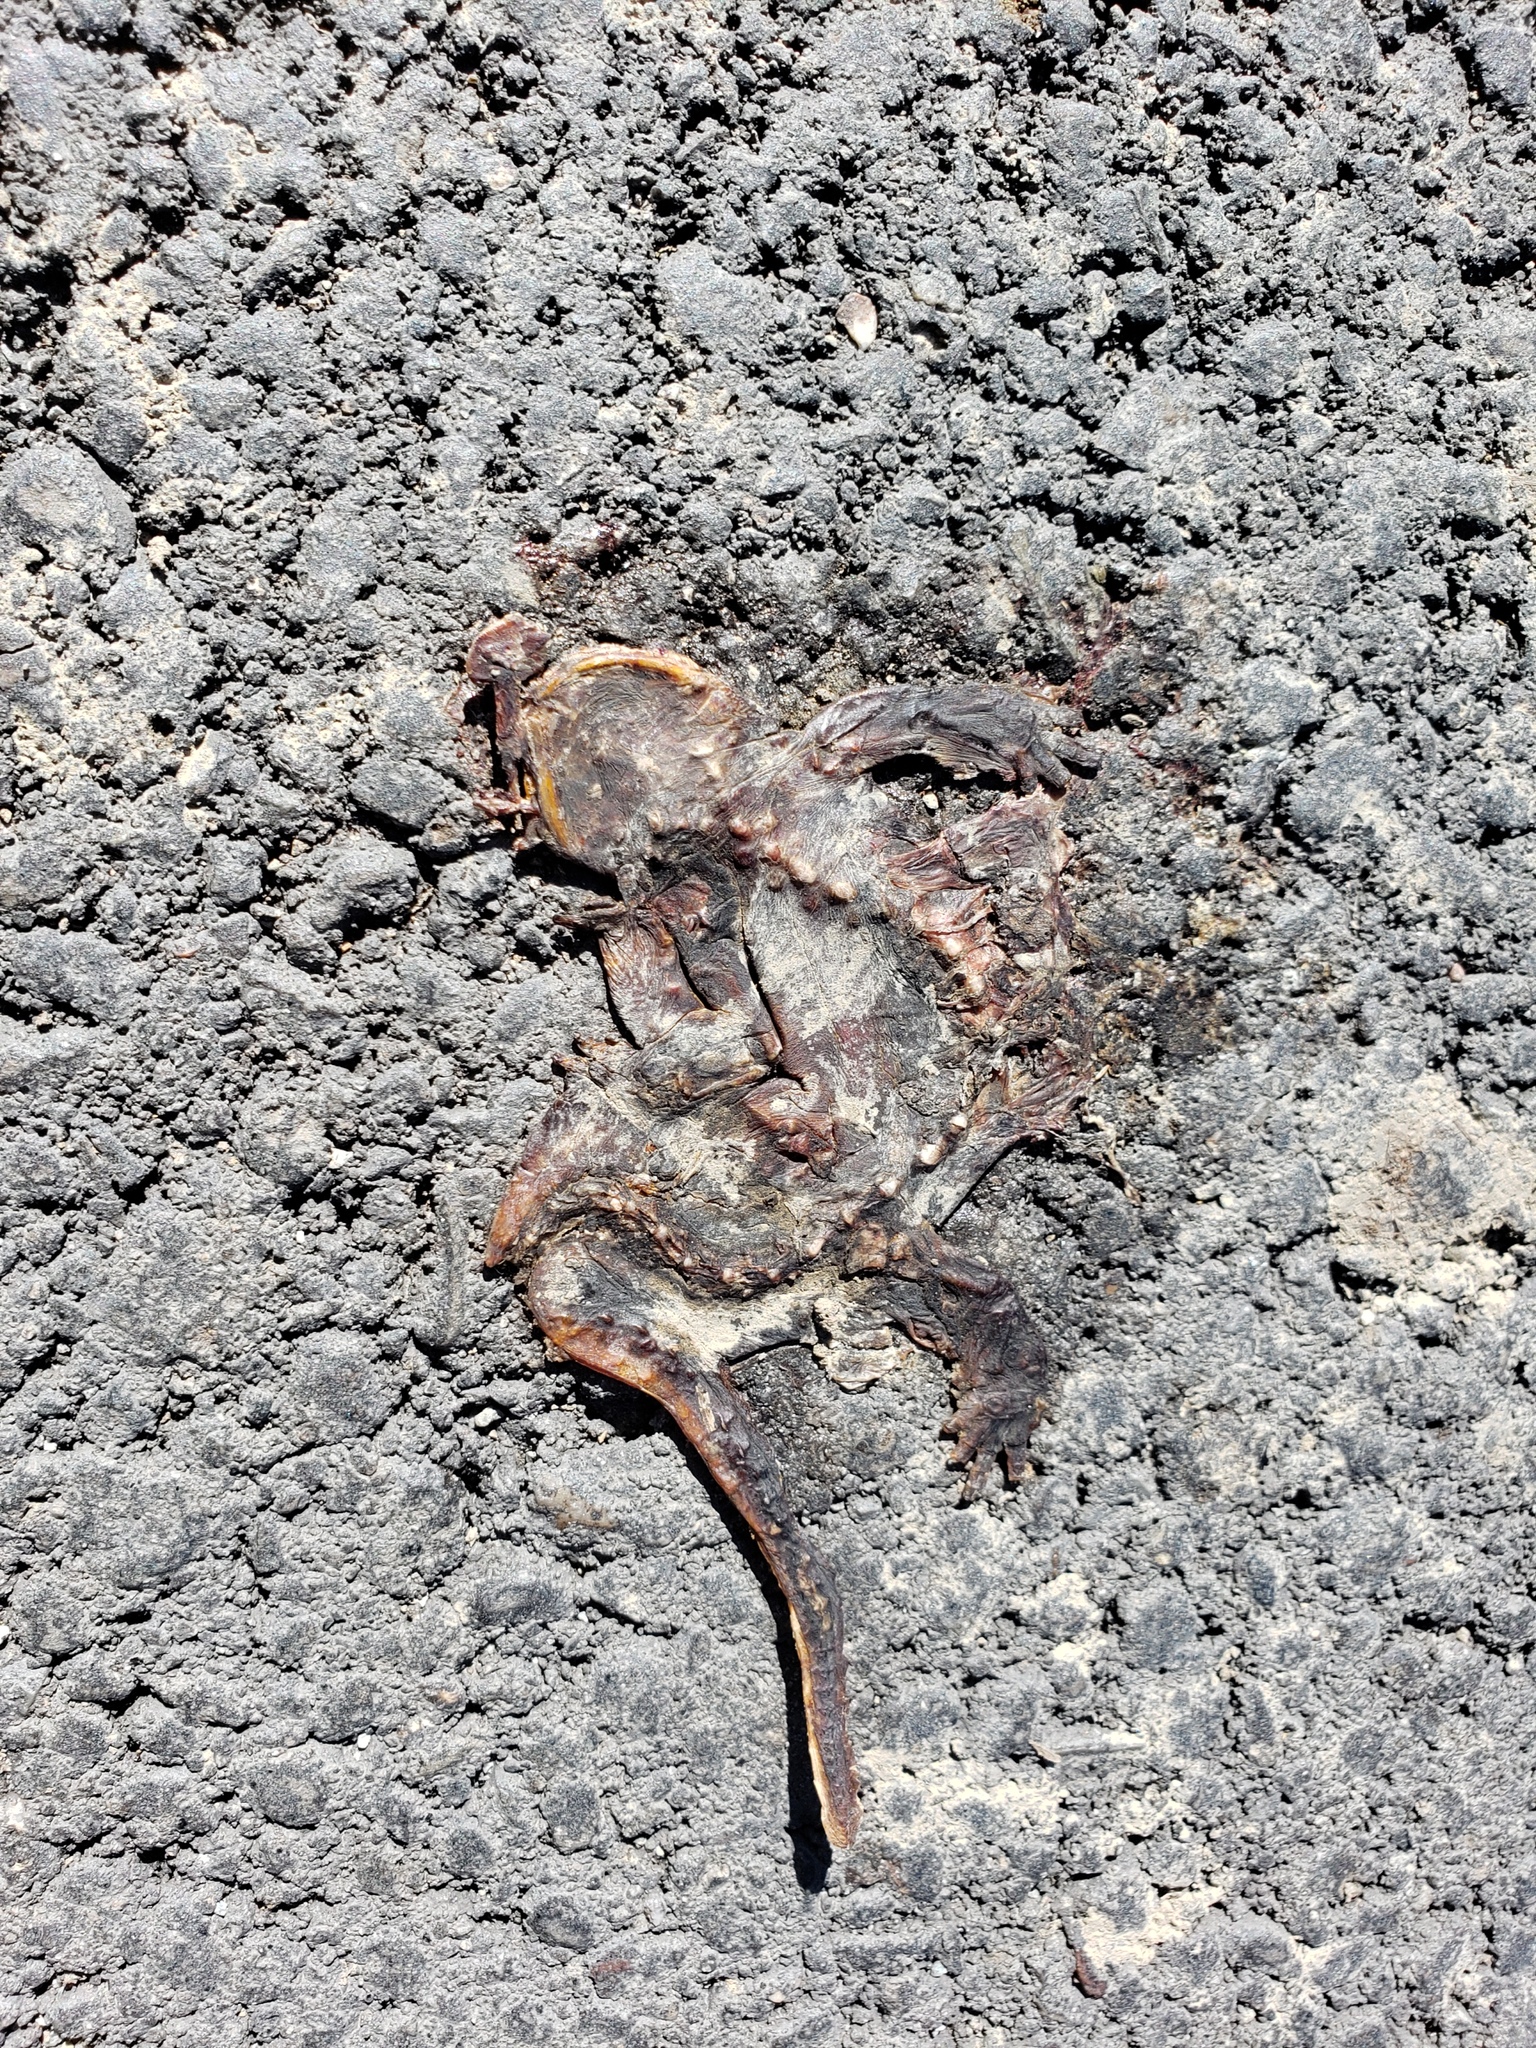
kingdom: Animalia
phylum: Chordata
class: Amphibia
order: Caudata
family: Salamandridae
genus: Taricha
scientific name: Taricha
